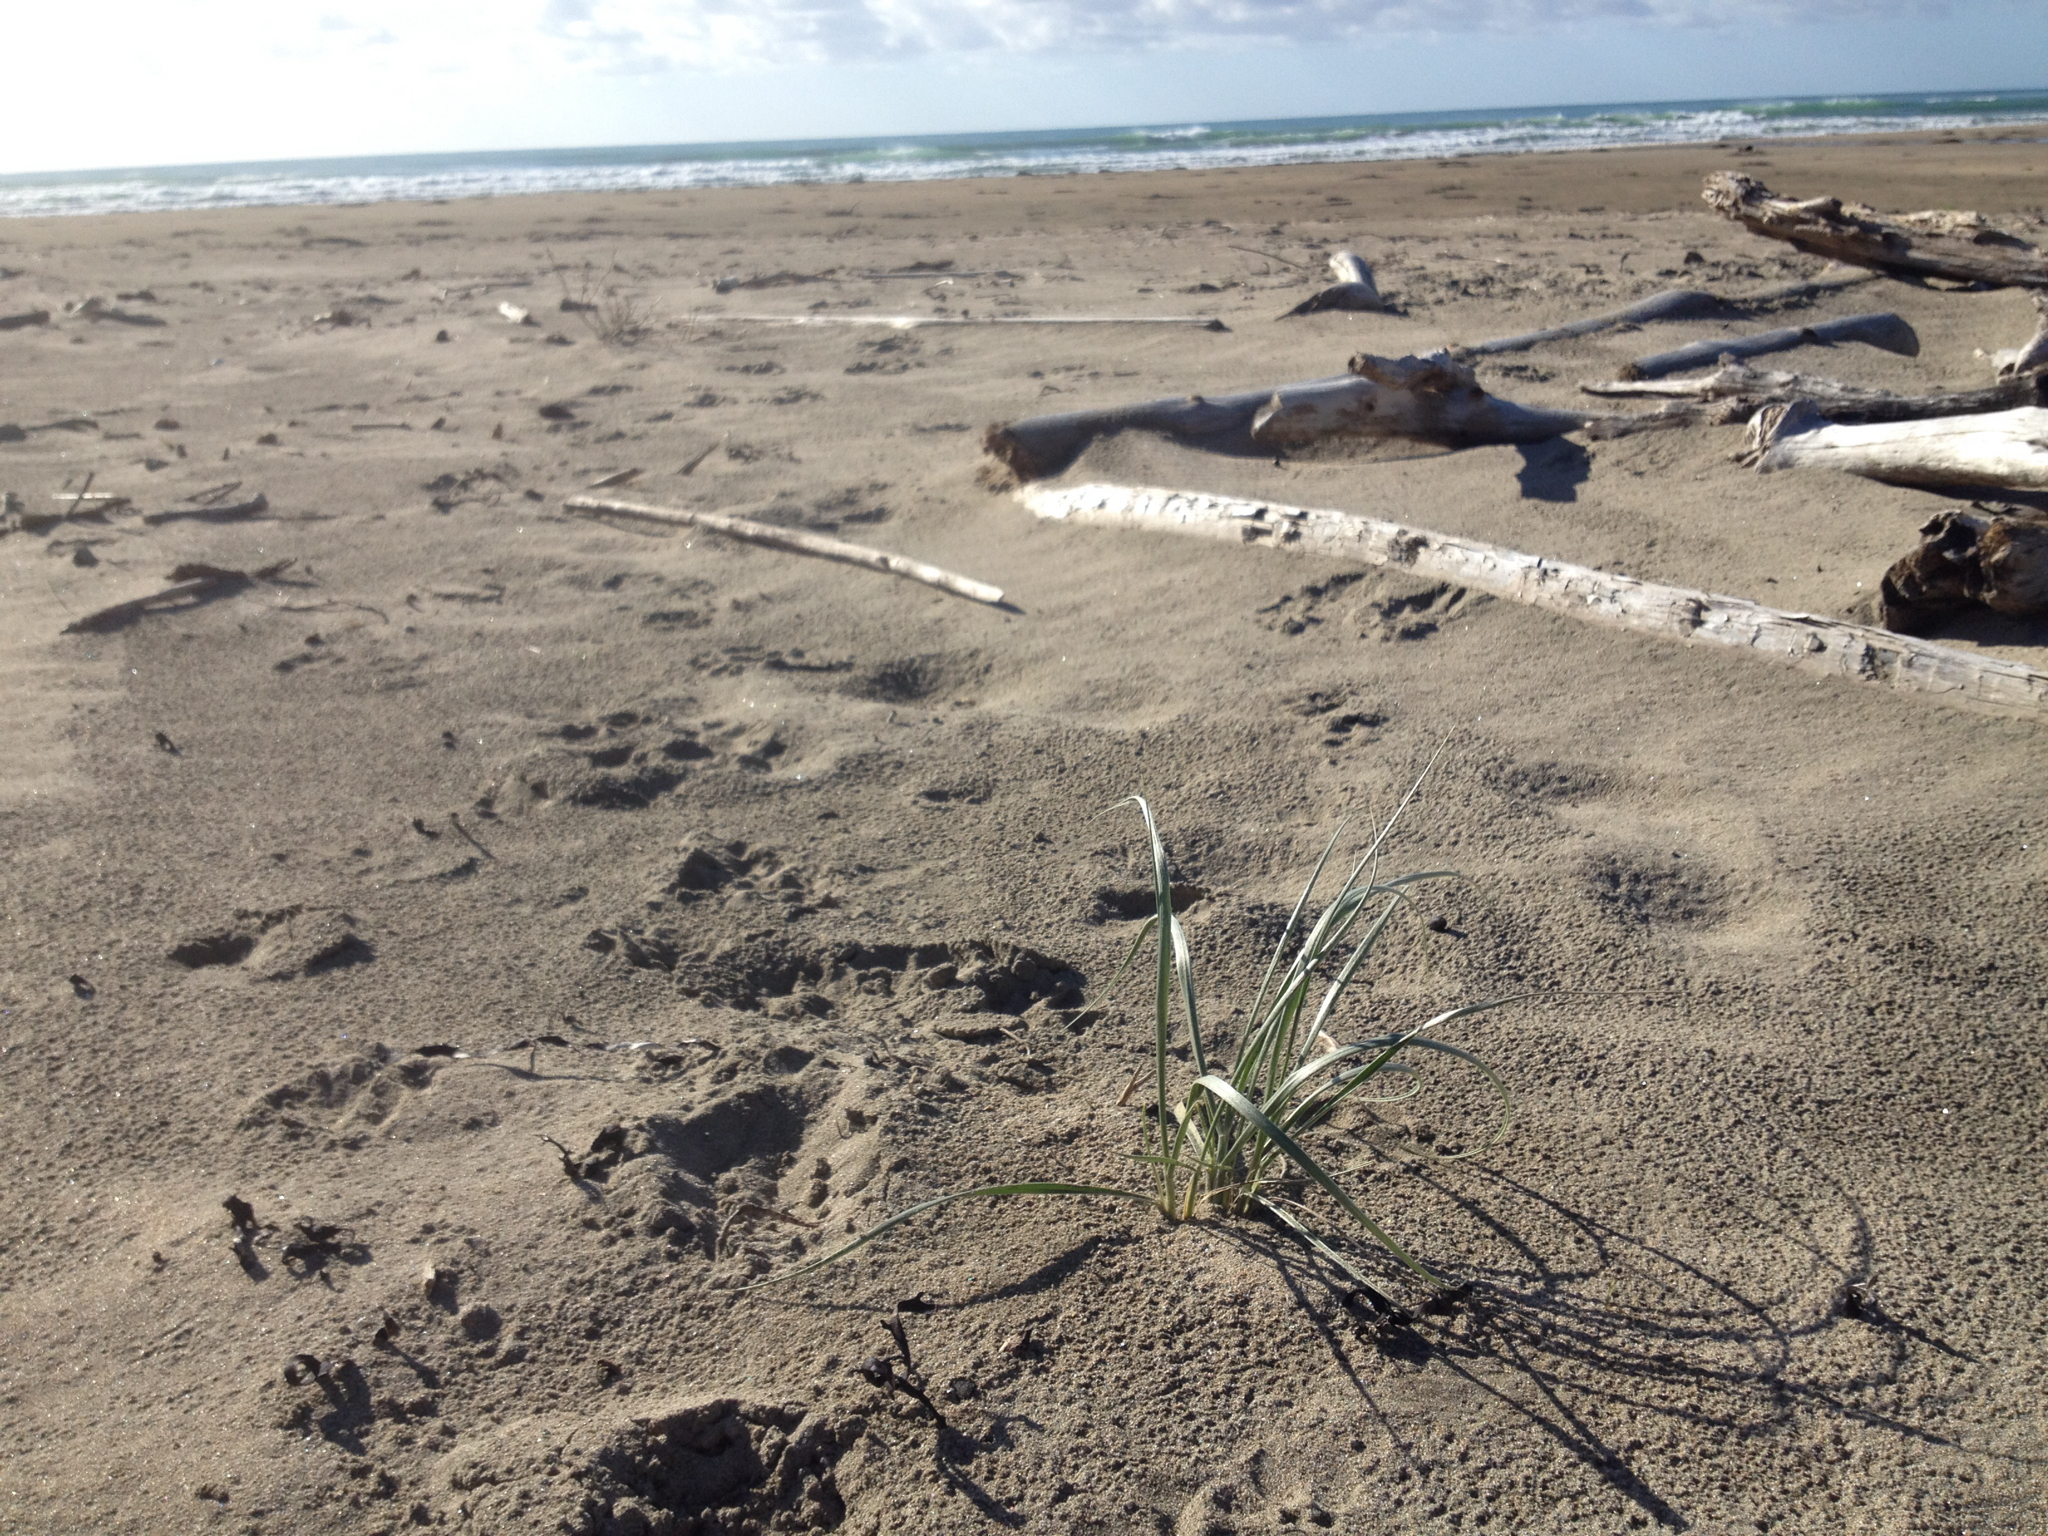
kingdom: Plantae
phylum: Tracheophyta
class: Liliopsida
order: Poales
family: Poaceae
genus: Spinifex
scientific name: Spinifex sericeus
